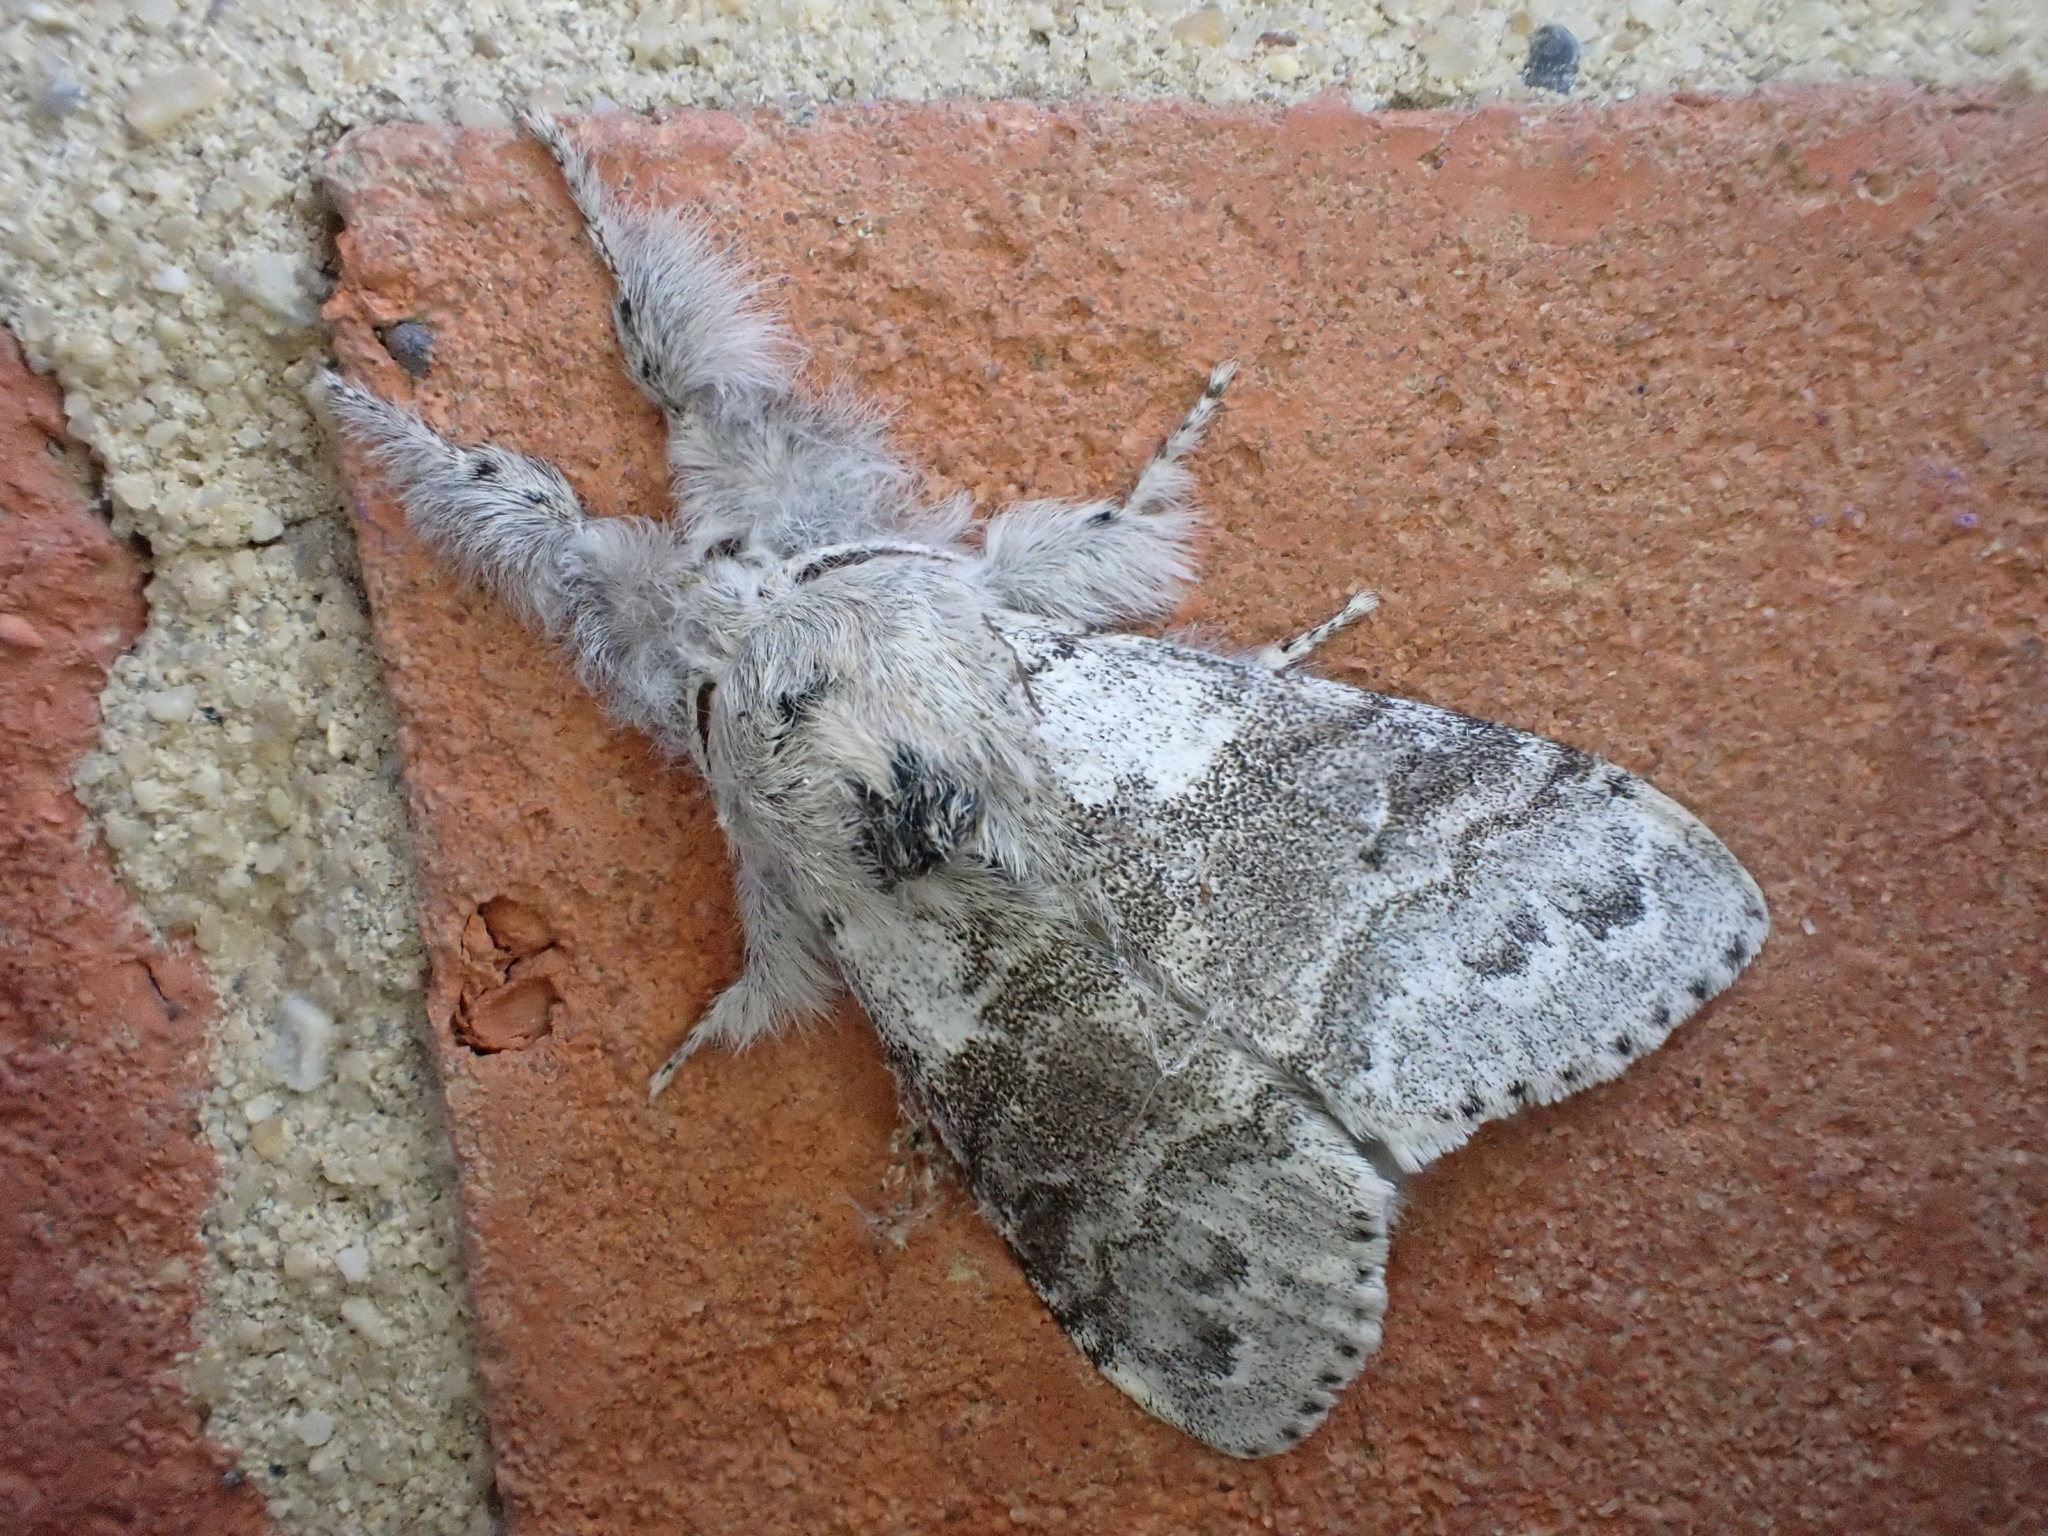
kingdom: Animalia
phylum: Arthropoda
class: Insecta
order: Lepidoptera
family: Erebidae
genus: Calliteara
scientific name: Calliteara pudibunda
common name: Pale tussock
